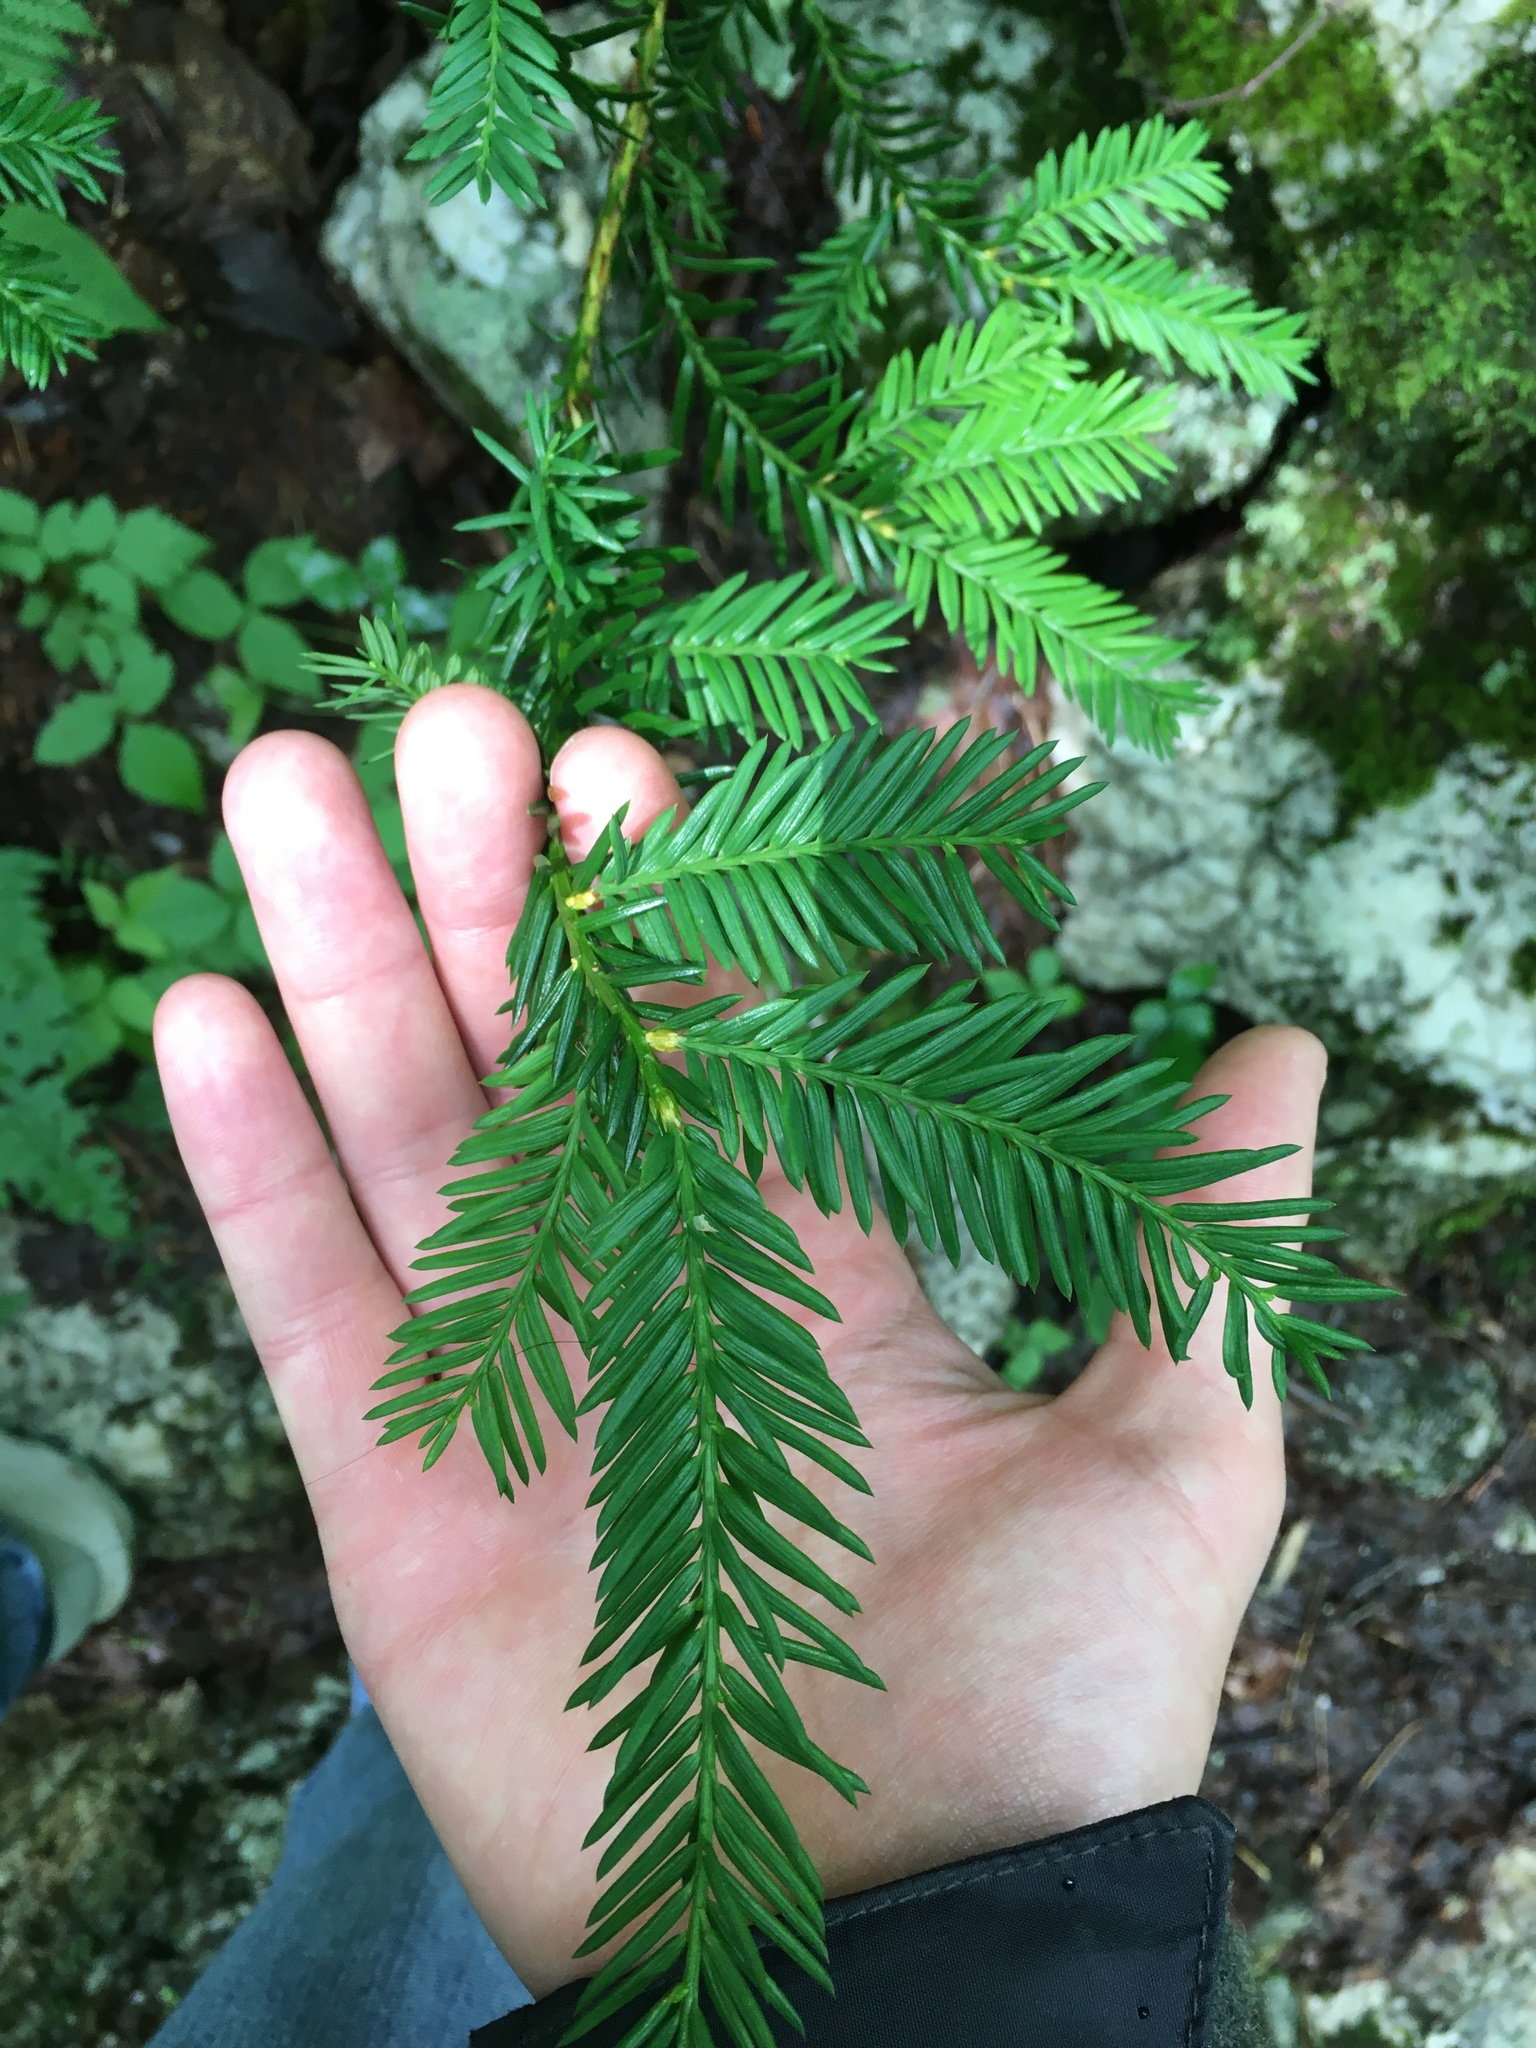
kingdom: Plantae
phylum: Tracheophyta
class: Pinopsida
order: Pinales
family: Taxaceae
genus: Taxus
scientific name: Taxus canadensis
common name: American yew
